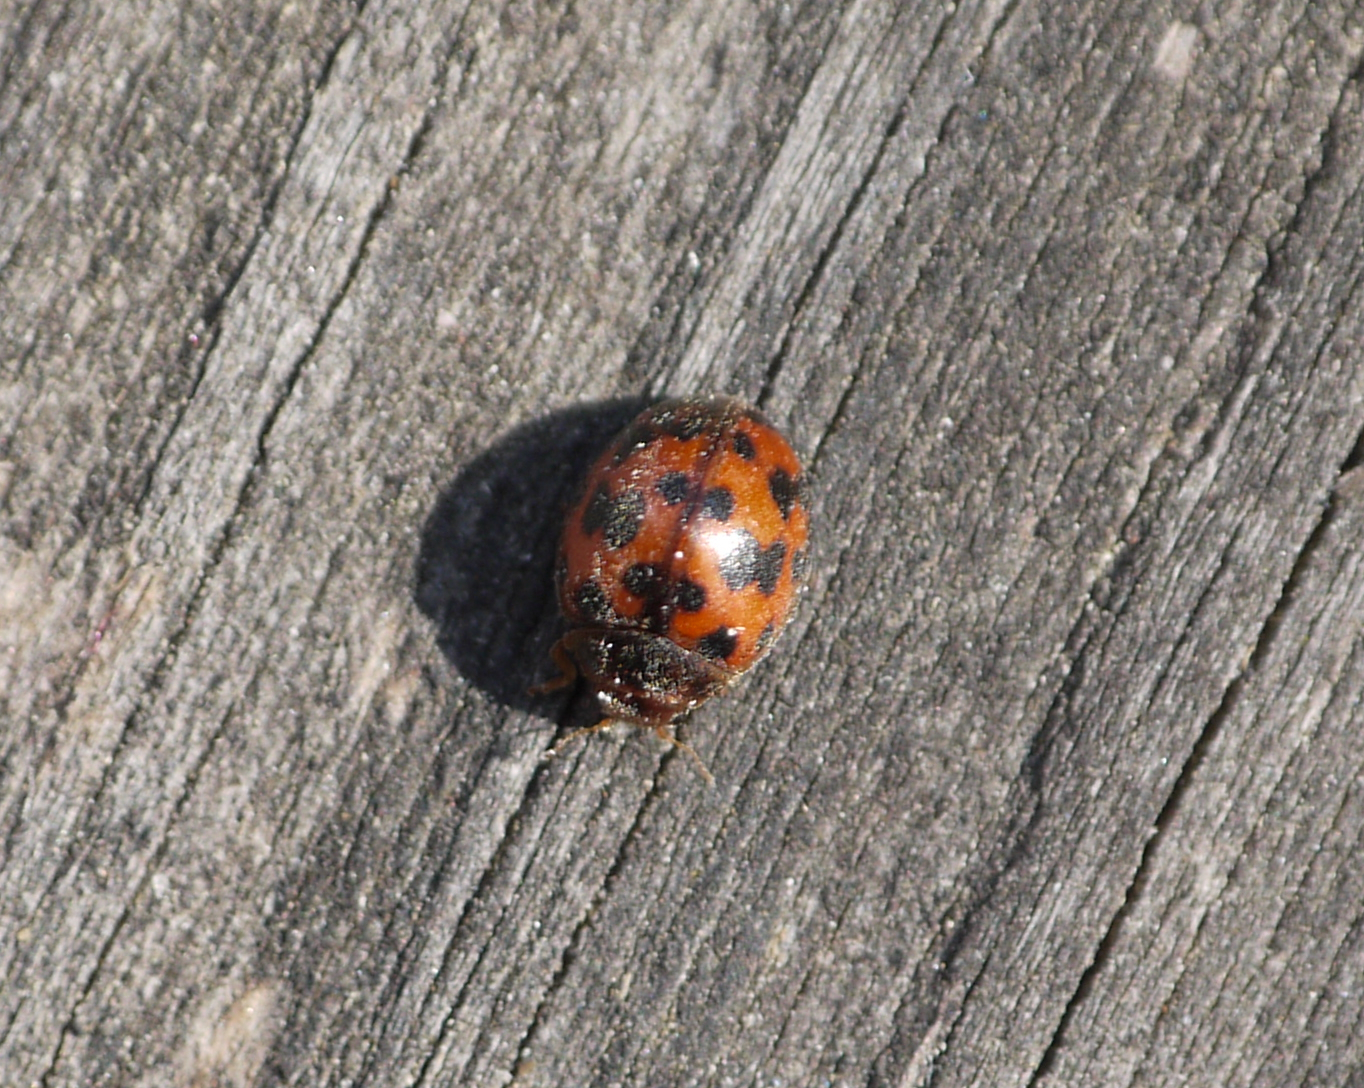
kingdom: Animalia
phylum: Arthropoda
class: Insecta
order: Coleoptera
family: Coccinellidae
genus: Subcoccinella
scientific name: Subcoccinella vigintiquatuorpunctata
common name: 24-spot ladybird
